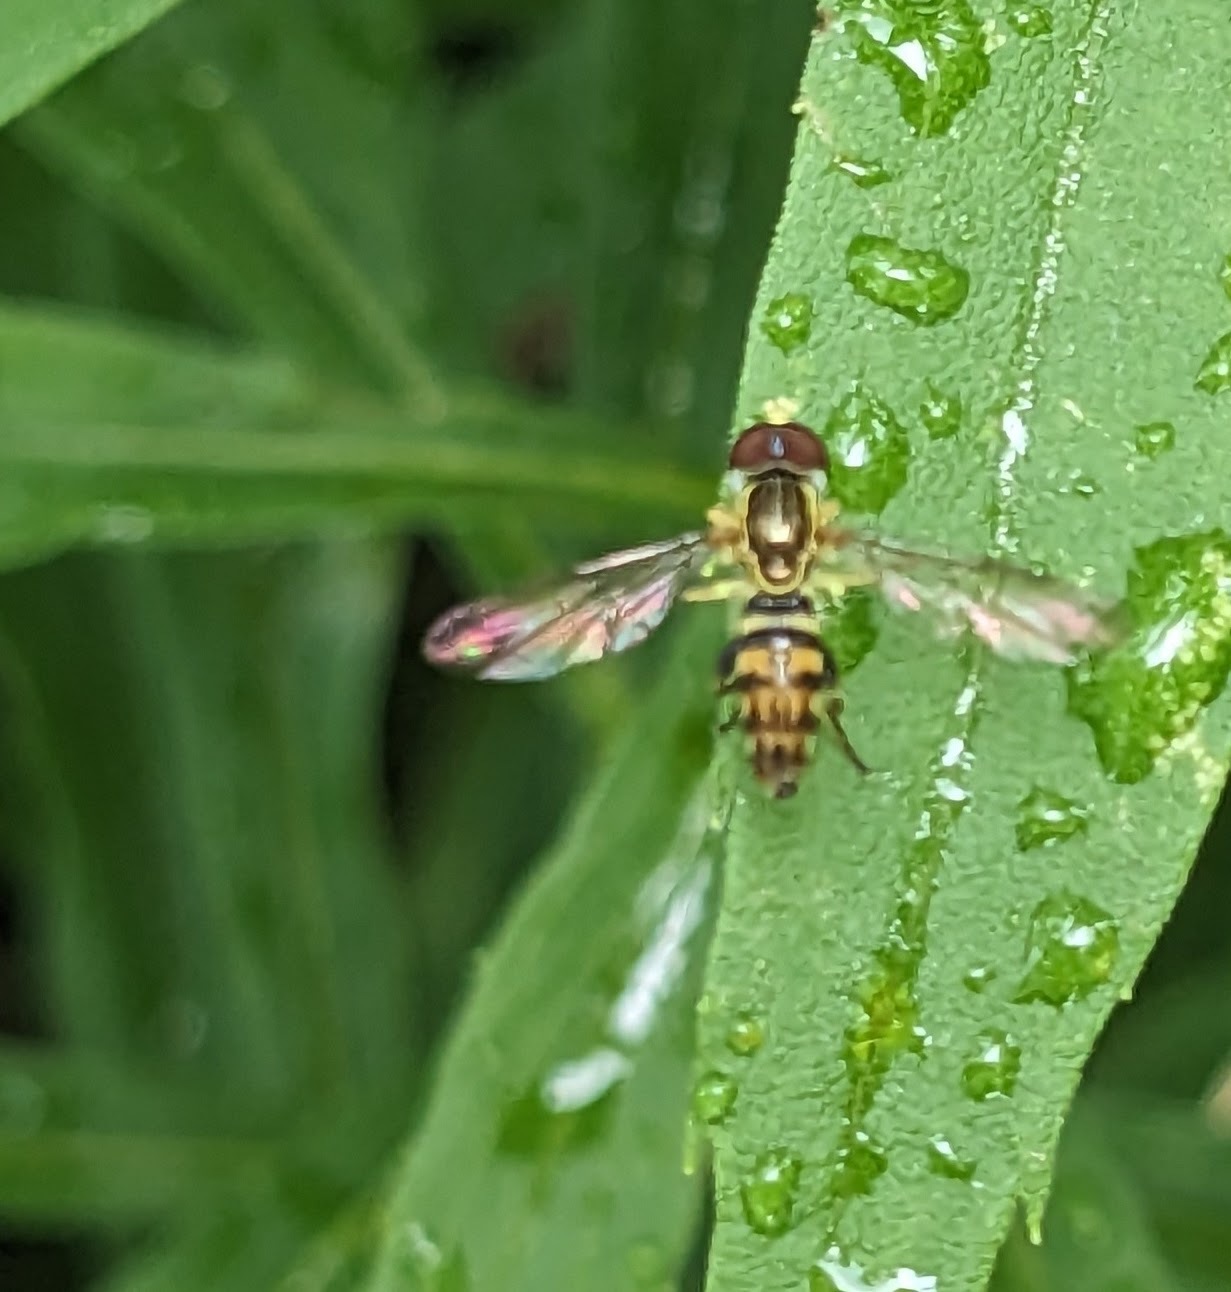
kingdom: Animalia
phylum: Arthropoda
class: Insecta
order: Diptera
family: Syrphidae
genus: Toxomerus
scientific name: Toxomerus geminatus
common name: Eastern calligrapher
